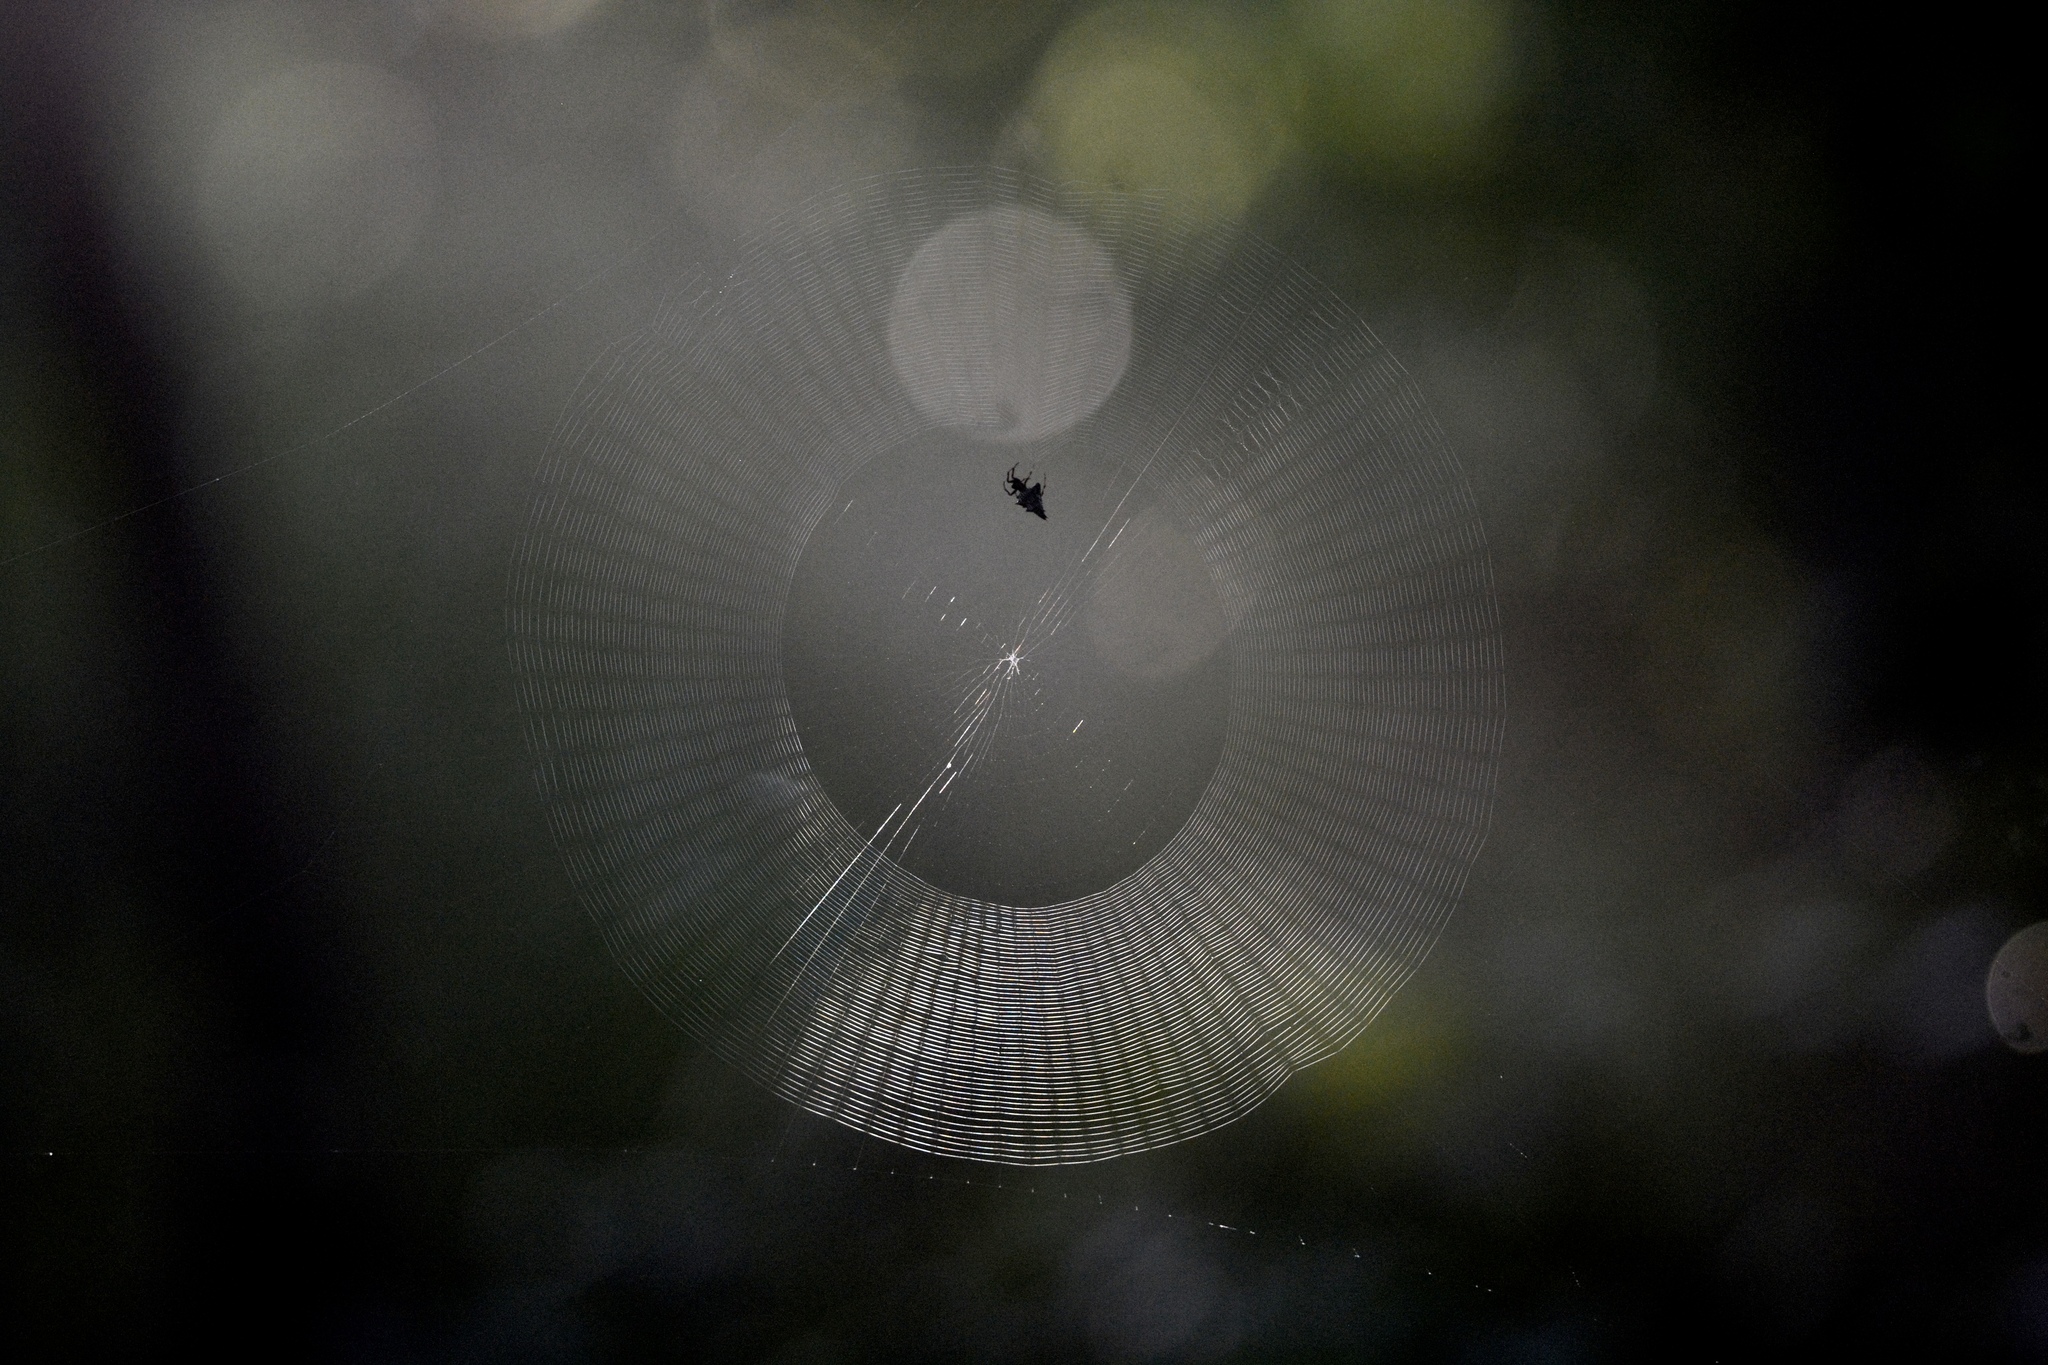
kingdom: Animalia
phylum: Arthropoda
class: Arachnida
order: Araneae
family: Araneidae
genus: Micrathena
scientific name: Micrathena gracilis
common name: Orb weavers
